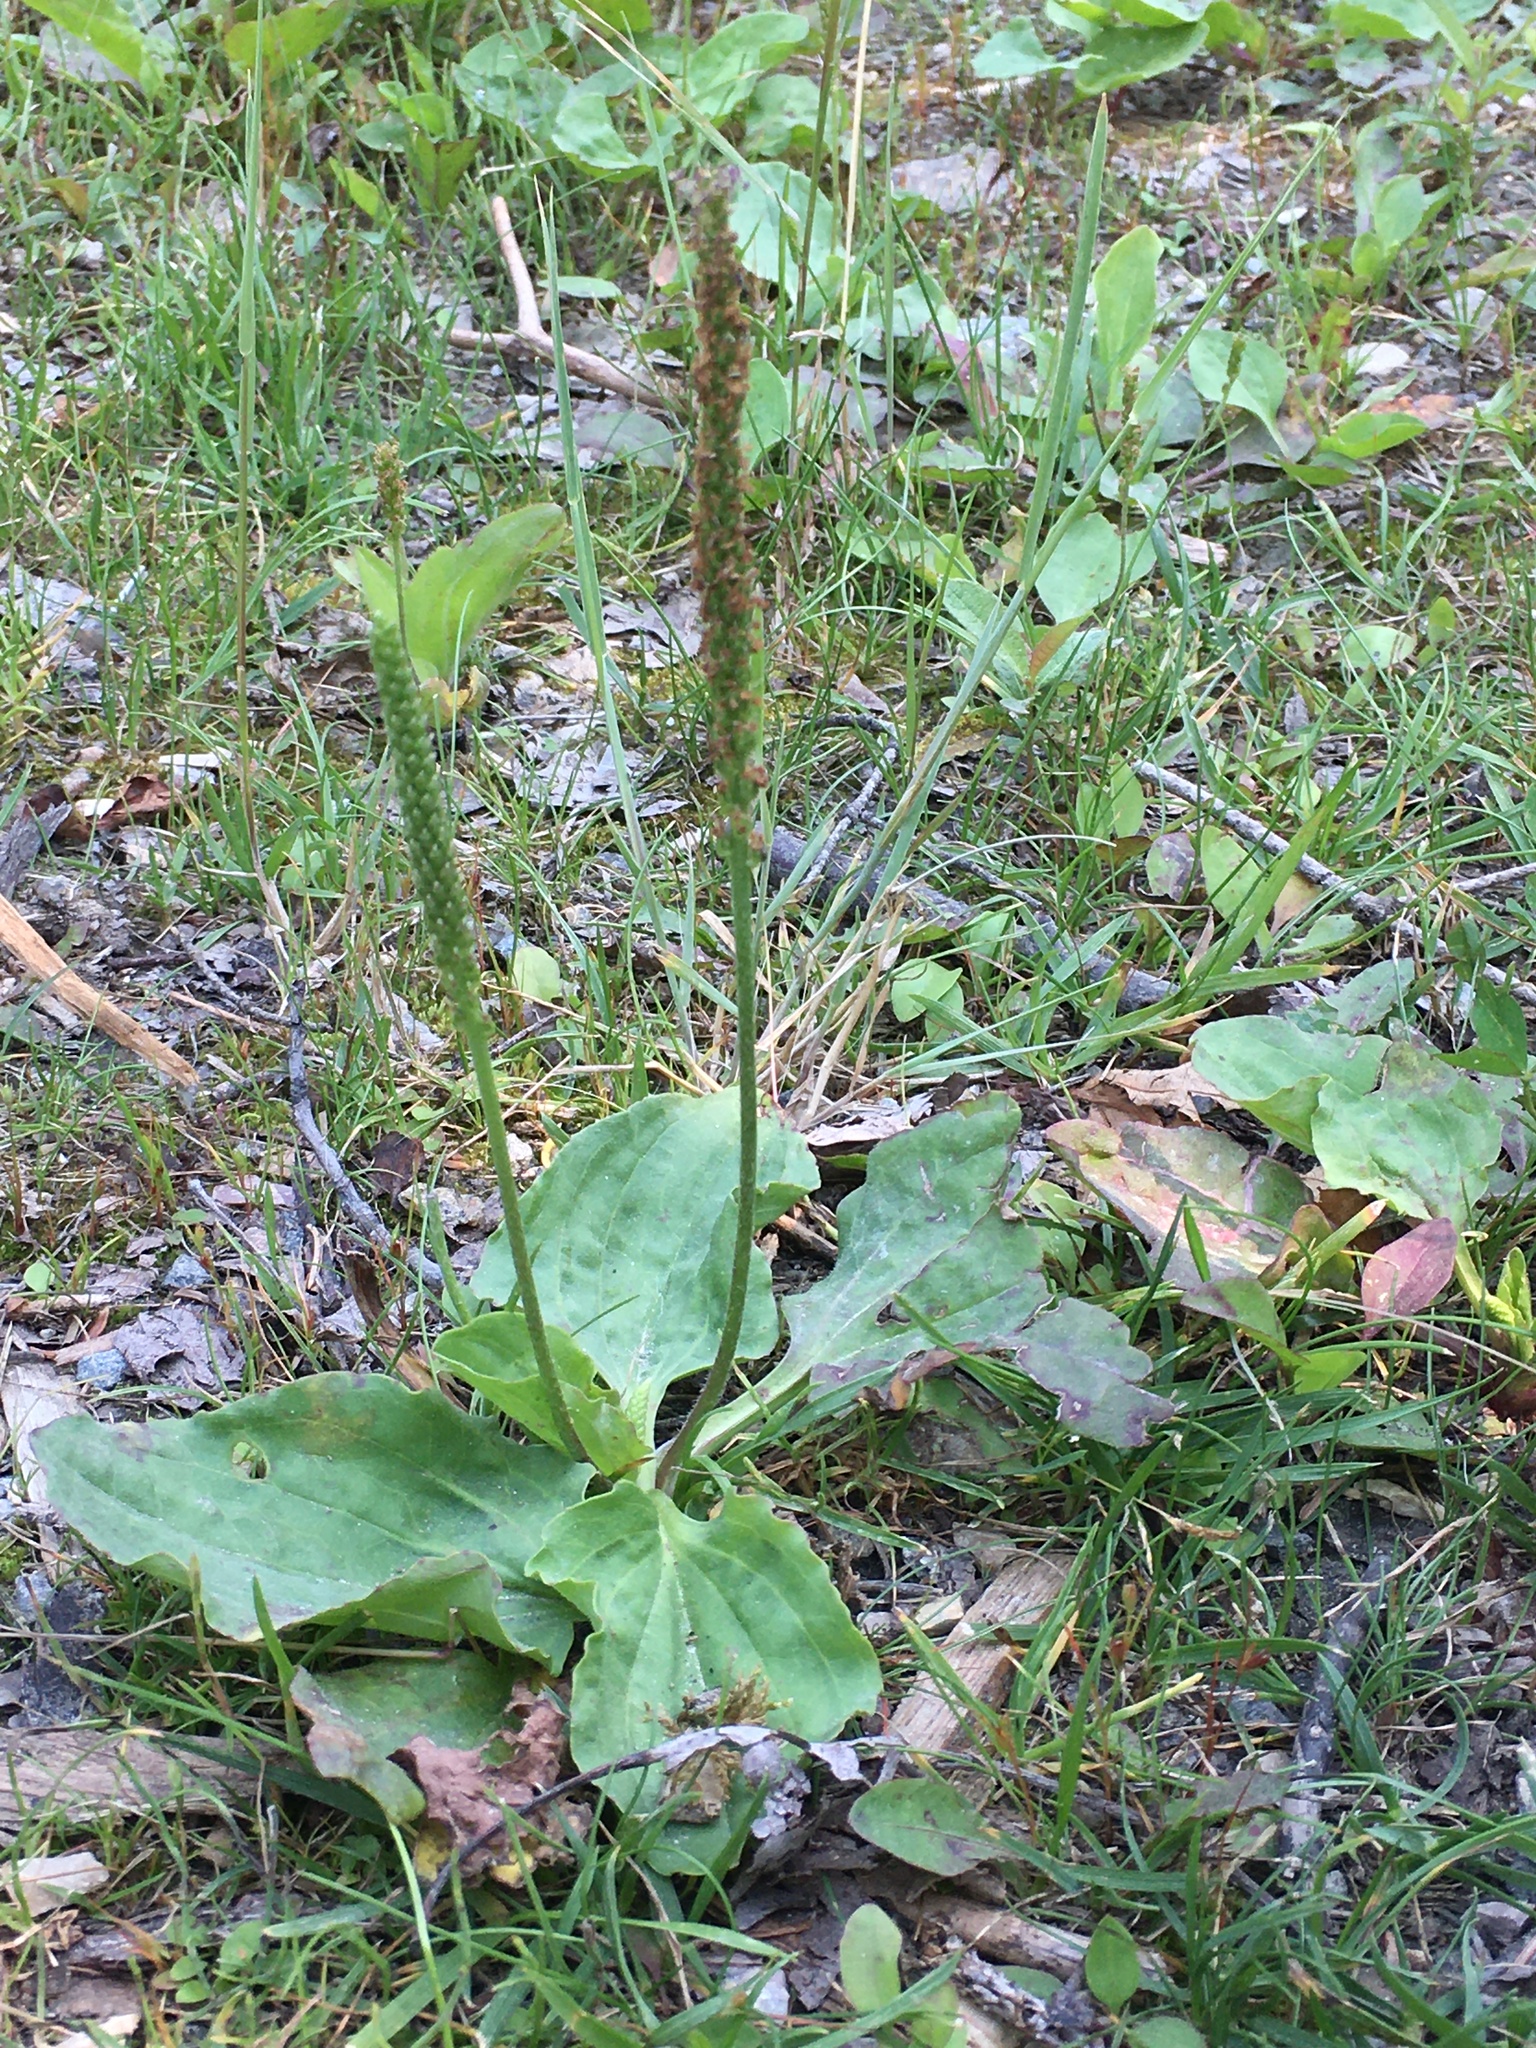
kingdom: Plantae
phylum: Tracheophyta
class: Magnoliopsida
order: Lamiales
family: Plantaginaceae
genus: Plantago
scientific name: Plantago major
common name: Common plantain
